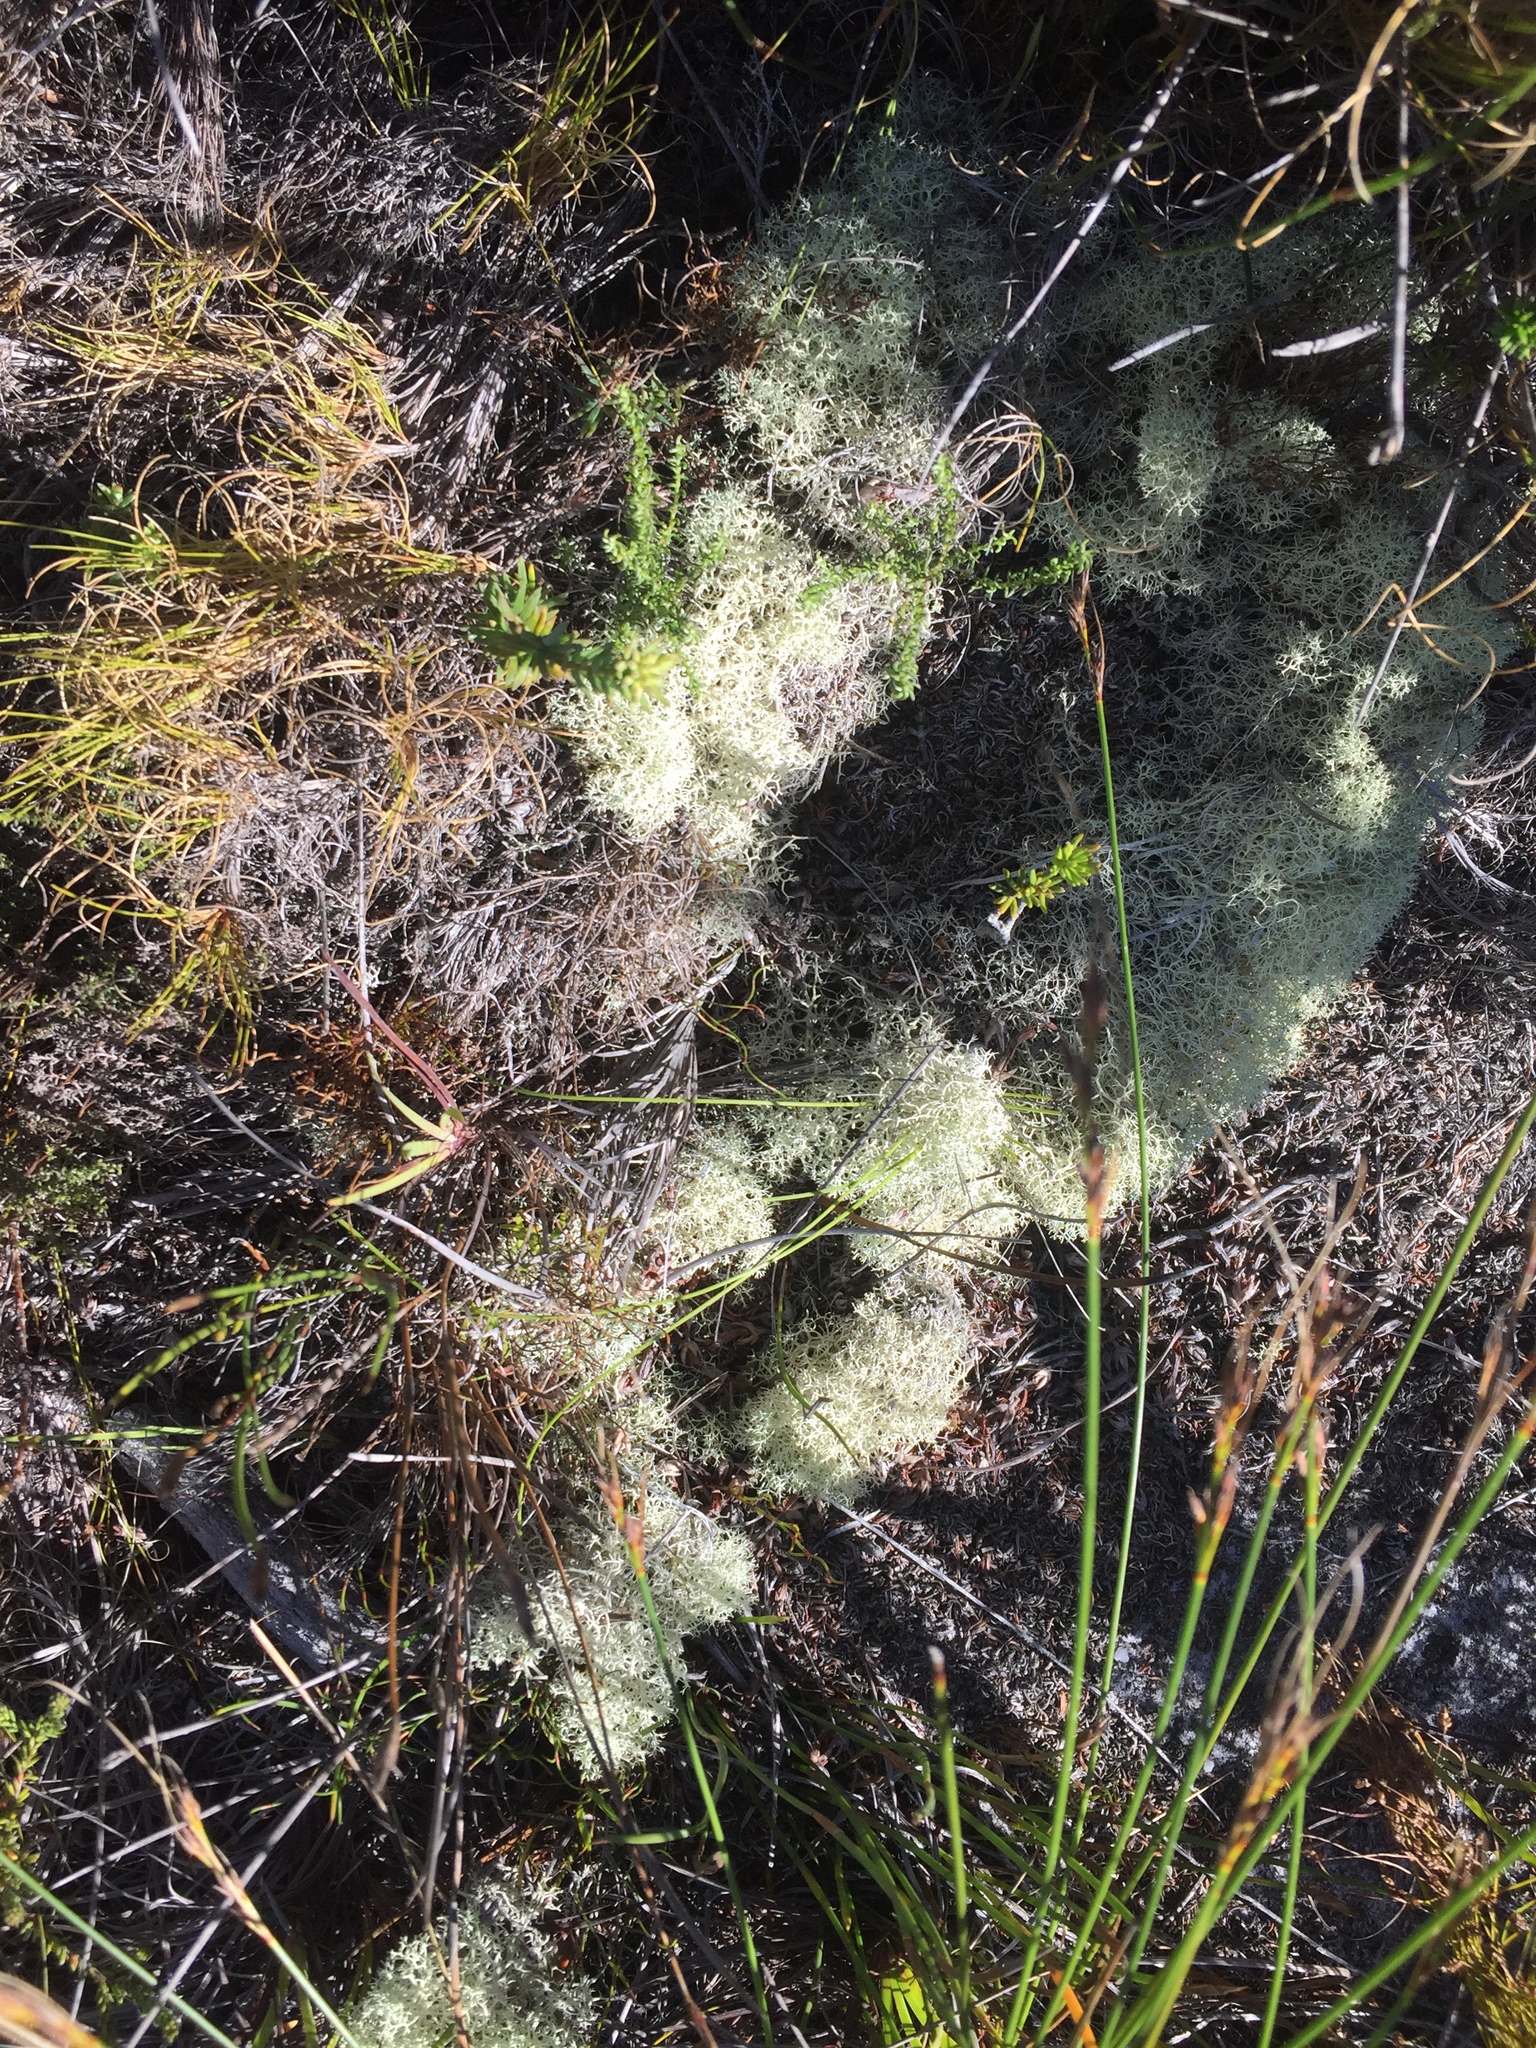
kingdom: Fungi
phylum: Ascomycota
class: Lecanoromycetes
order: Lecanorales
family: Cladoniaceae
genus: Cladonia
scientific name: Cladonia confusa
